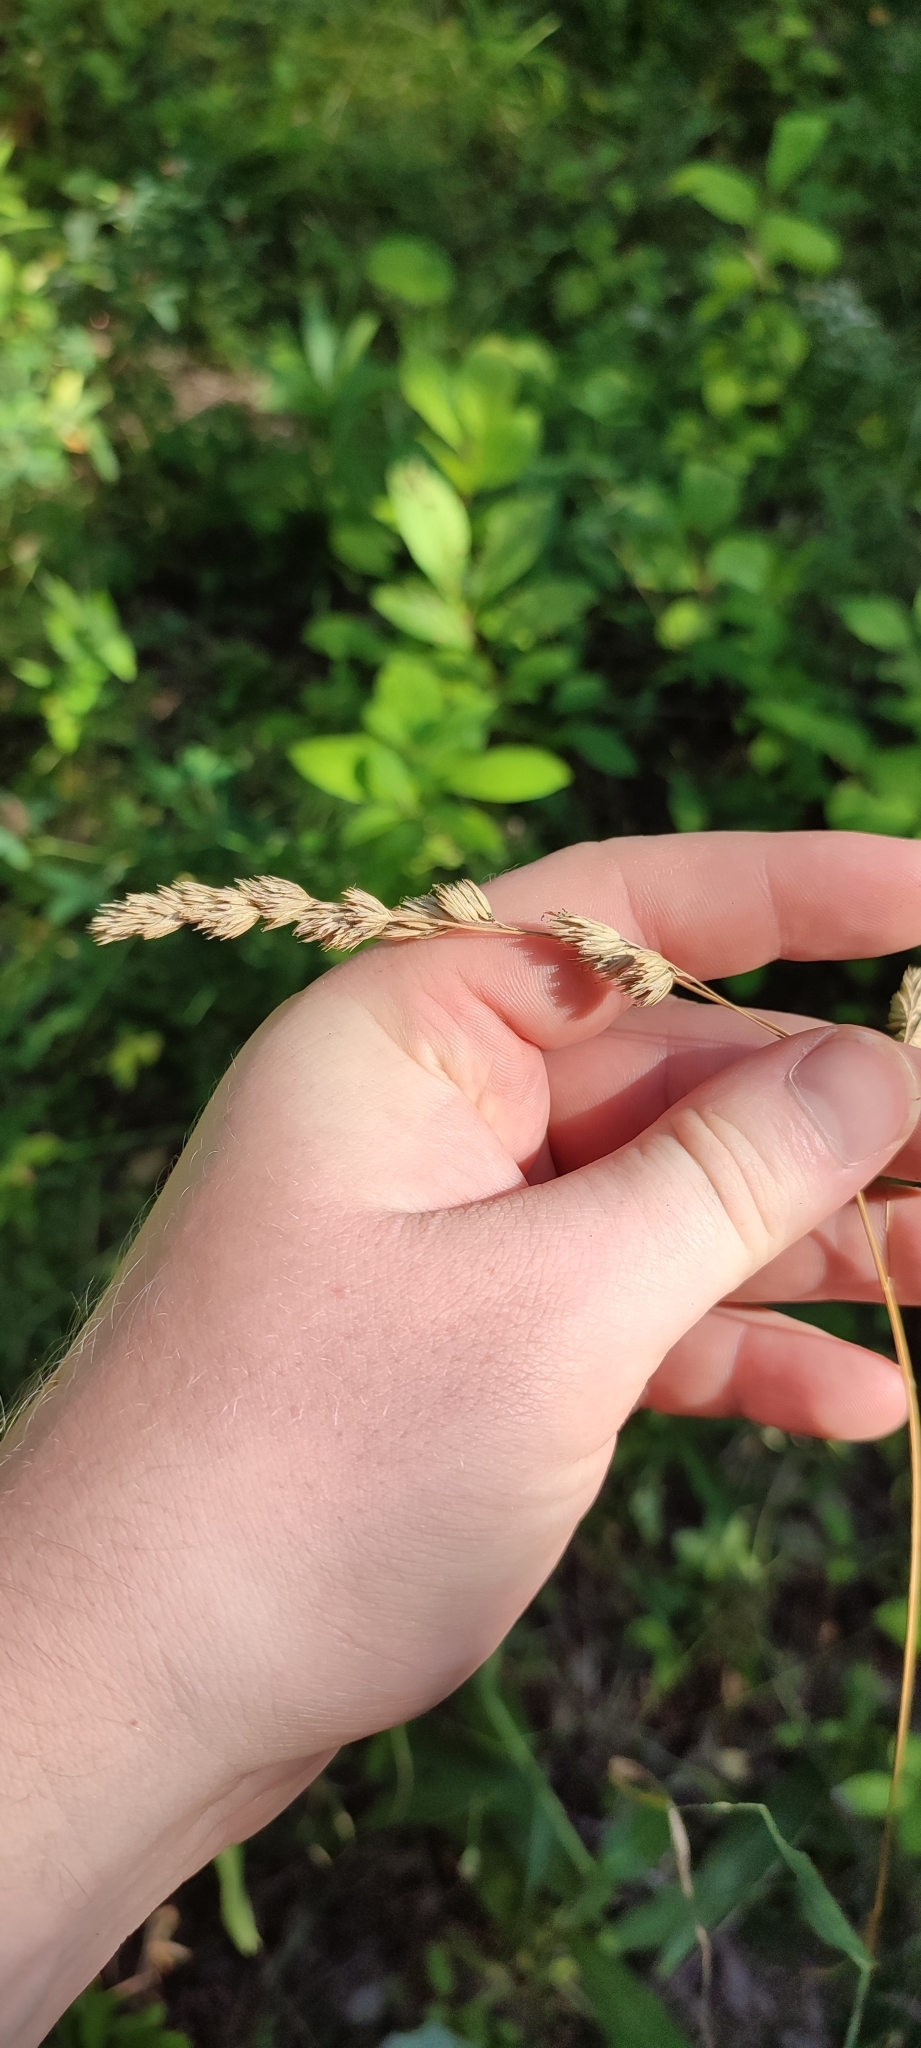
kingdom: Plantae
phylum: Tracheophyta
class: Liliopsida
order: Poales
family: Poaceae
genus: Dactylis
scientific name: Dactylis glomerata
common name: Orchardgrass
